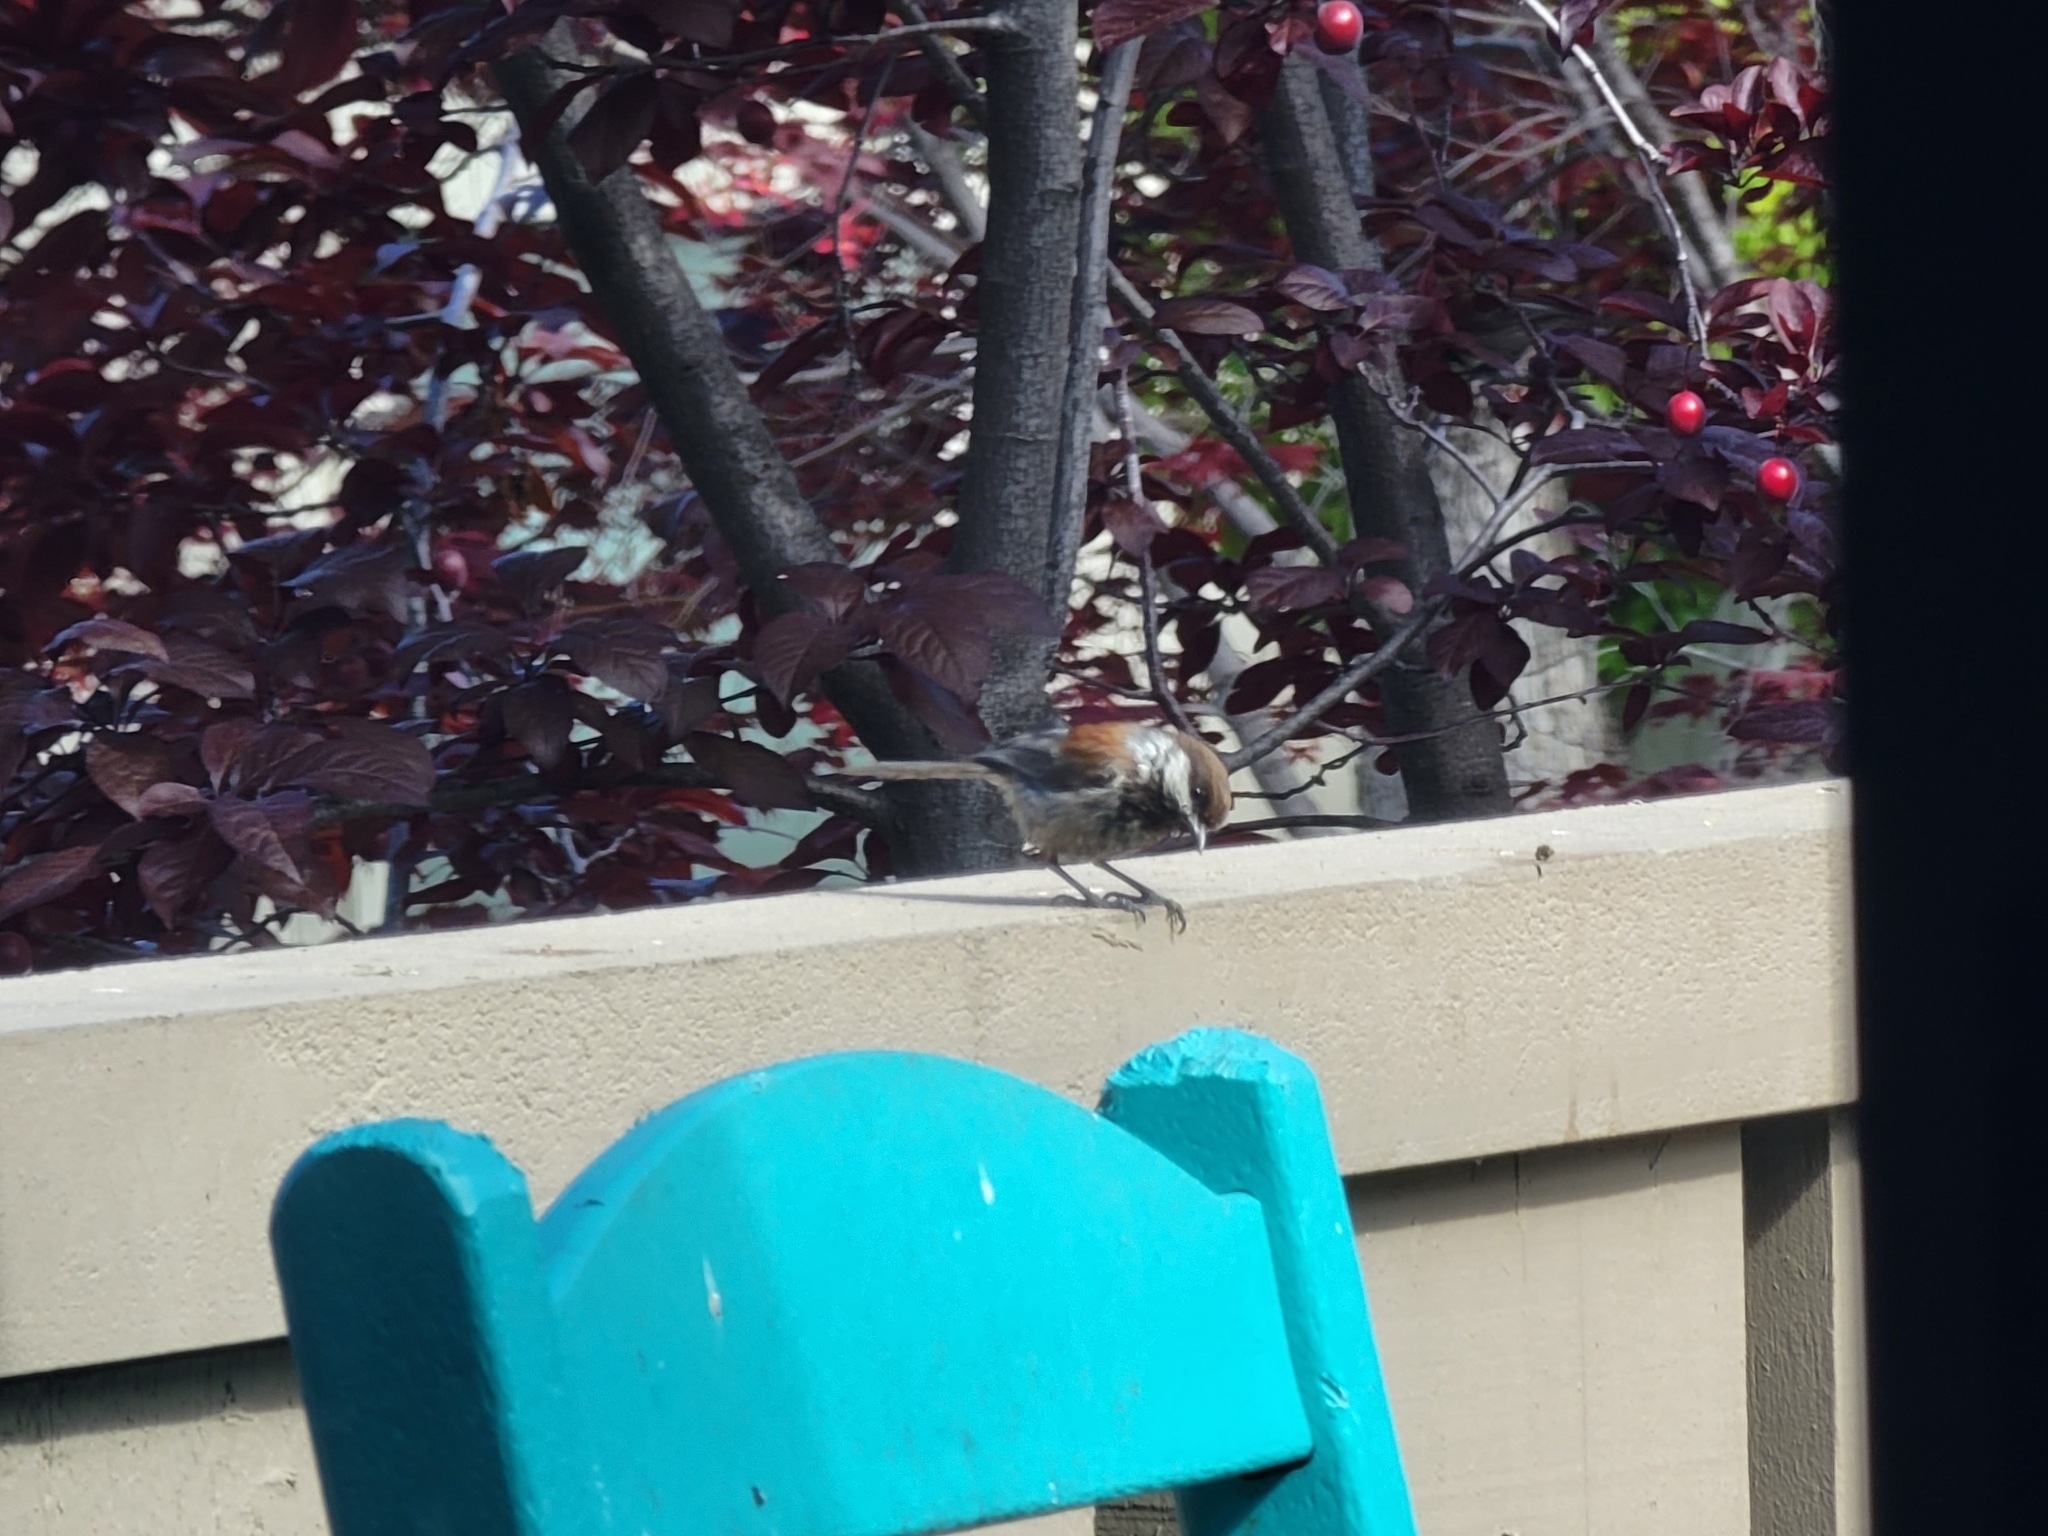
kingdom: Animalia
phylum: Chordata
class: Aves
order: Passeriformes
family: Paridae
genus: Poecile
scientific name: Poecile rufescens
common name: Chestnut-backed chickadee
